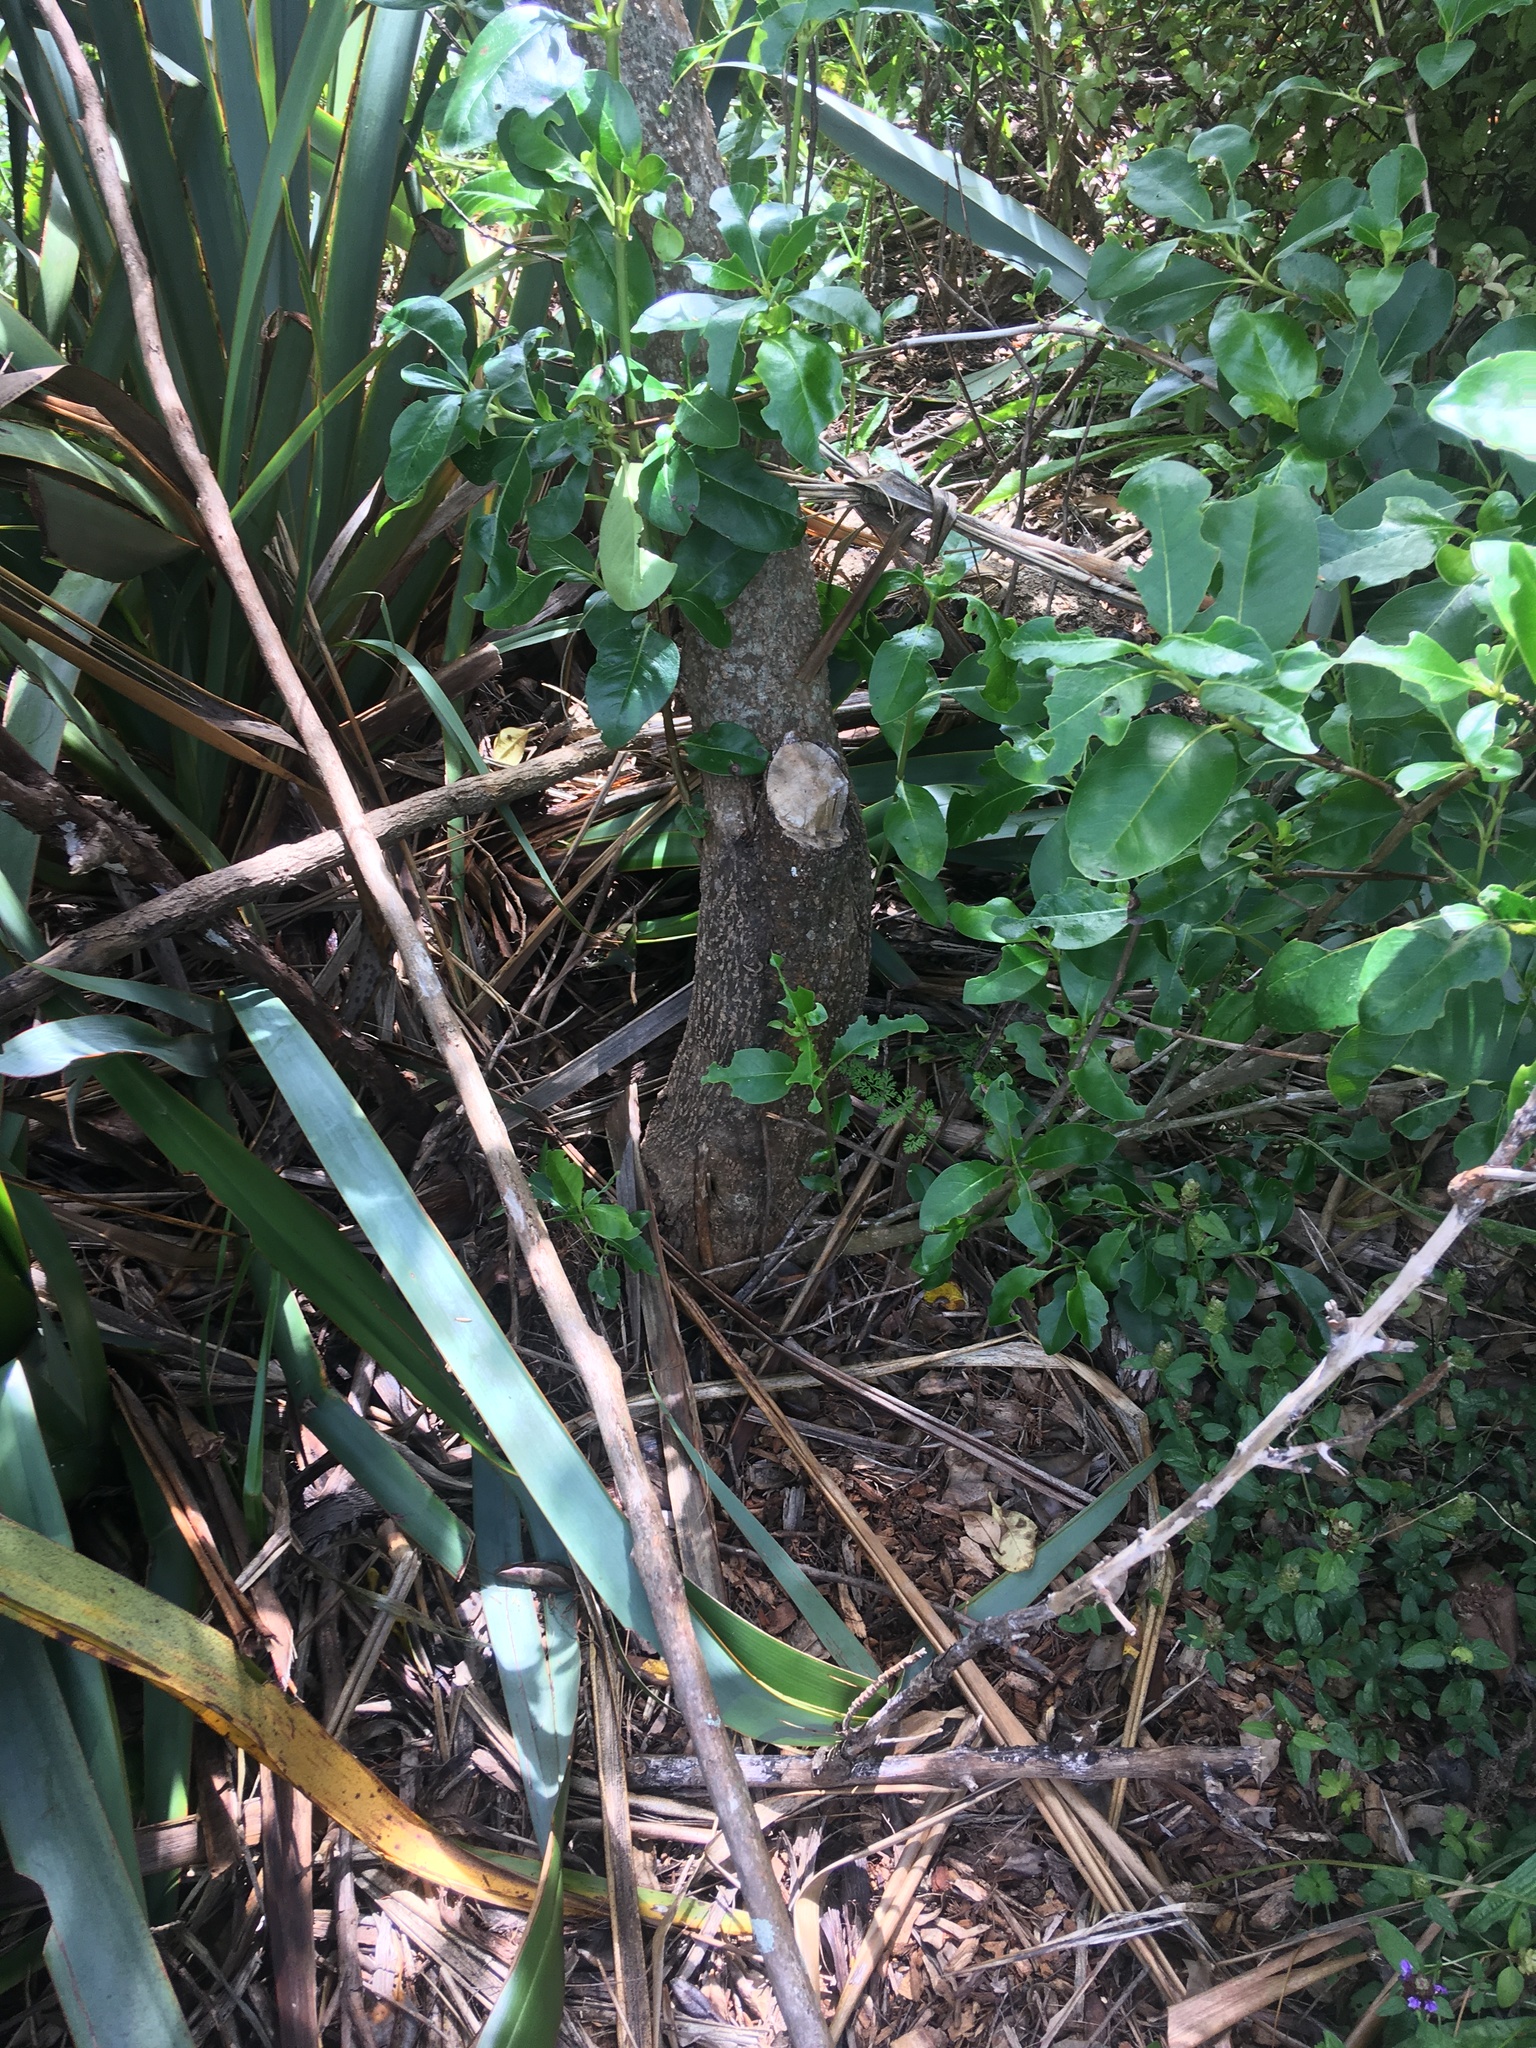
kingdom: Plantae
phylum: Tracheophyta
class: Magnoliopsida
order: Gentianales
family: Rubiaceae
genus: Coprosma
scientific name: Coprosma robusta
